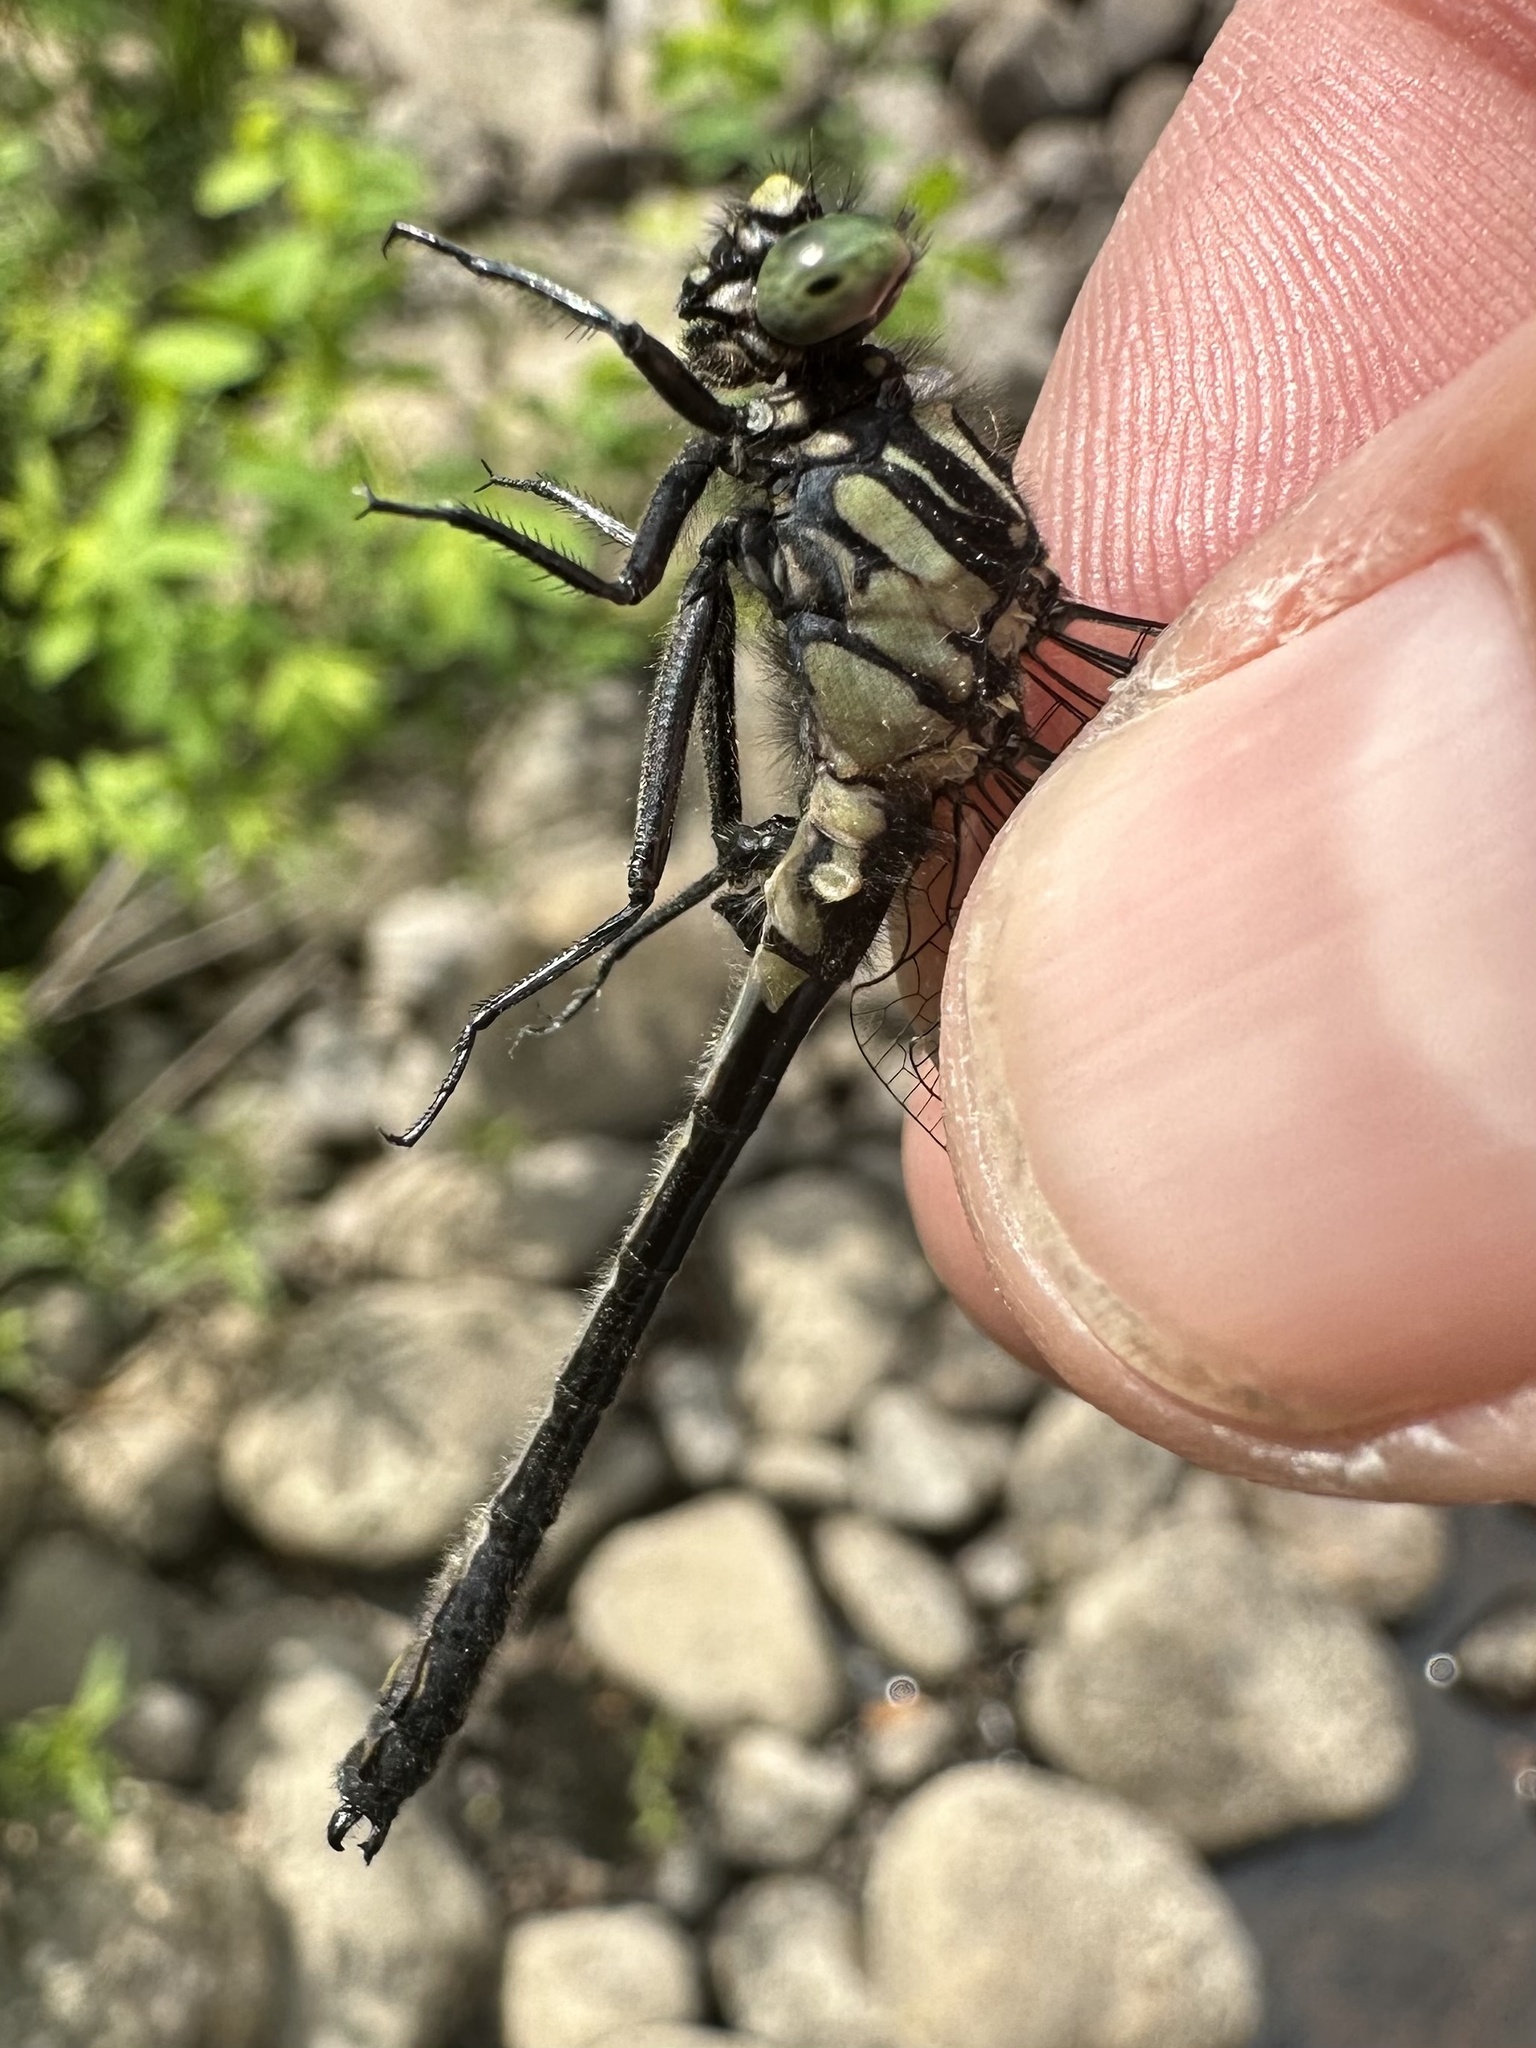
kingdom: Animalia
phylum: Arthropoda
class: Insecta
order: Odonata
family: Gomphidae
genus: Hylogomphus
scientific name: Hylogomphus adelphus
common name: Mustached clubtail
